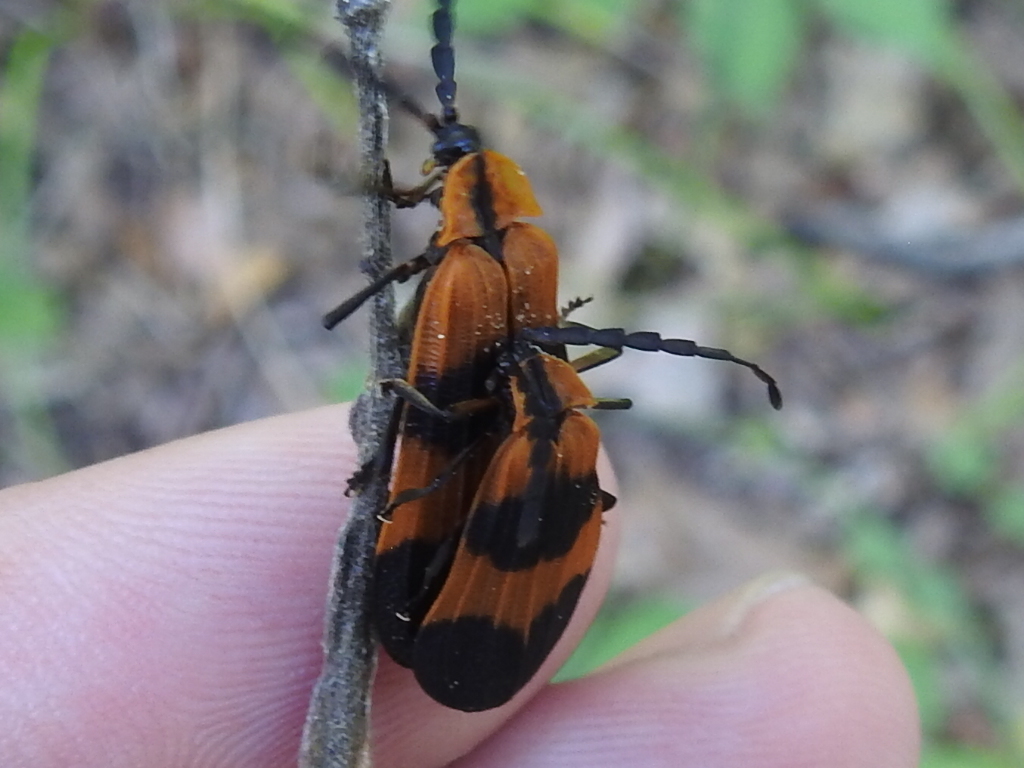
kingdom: Animalia
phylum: Arthropoda
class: Insecta
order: Coleoptera
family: Lycidae
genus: Calopteron
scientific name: Calopteron reticulatum
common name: Banded net-winged beetle
